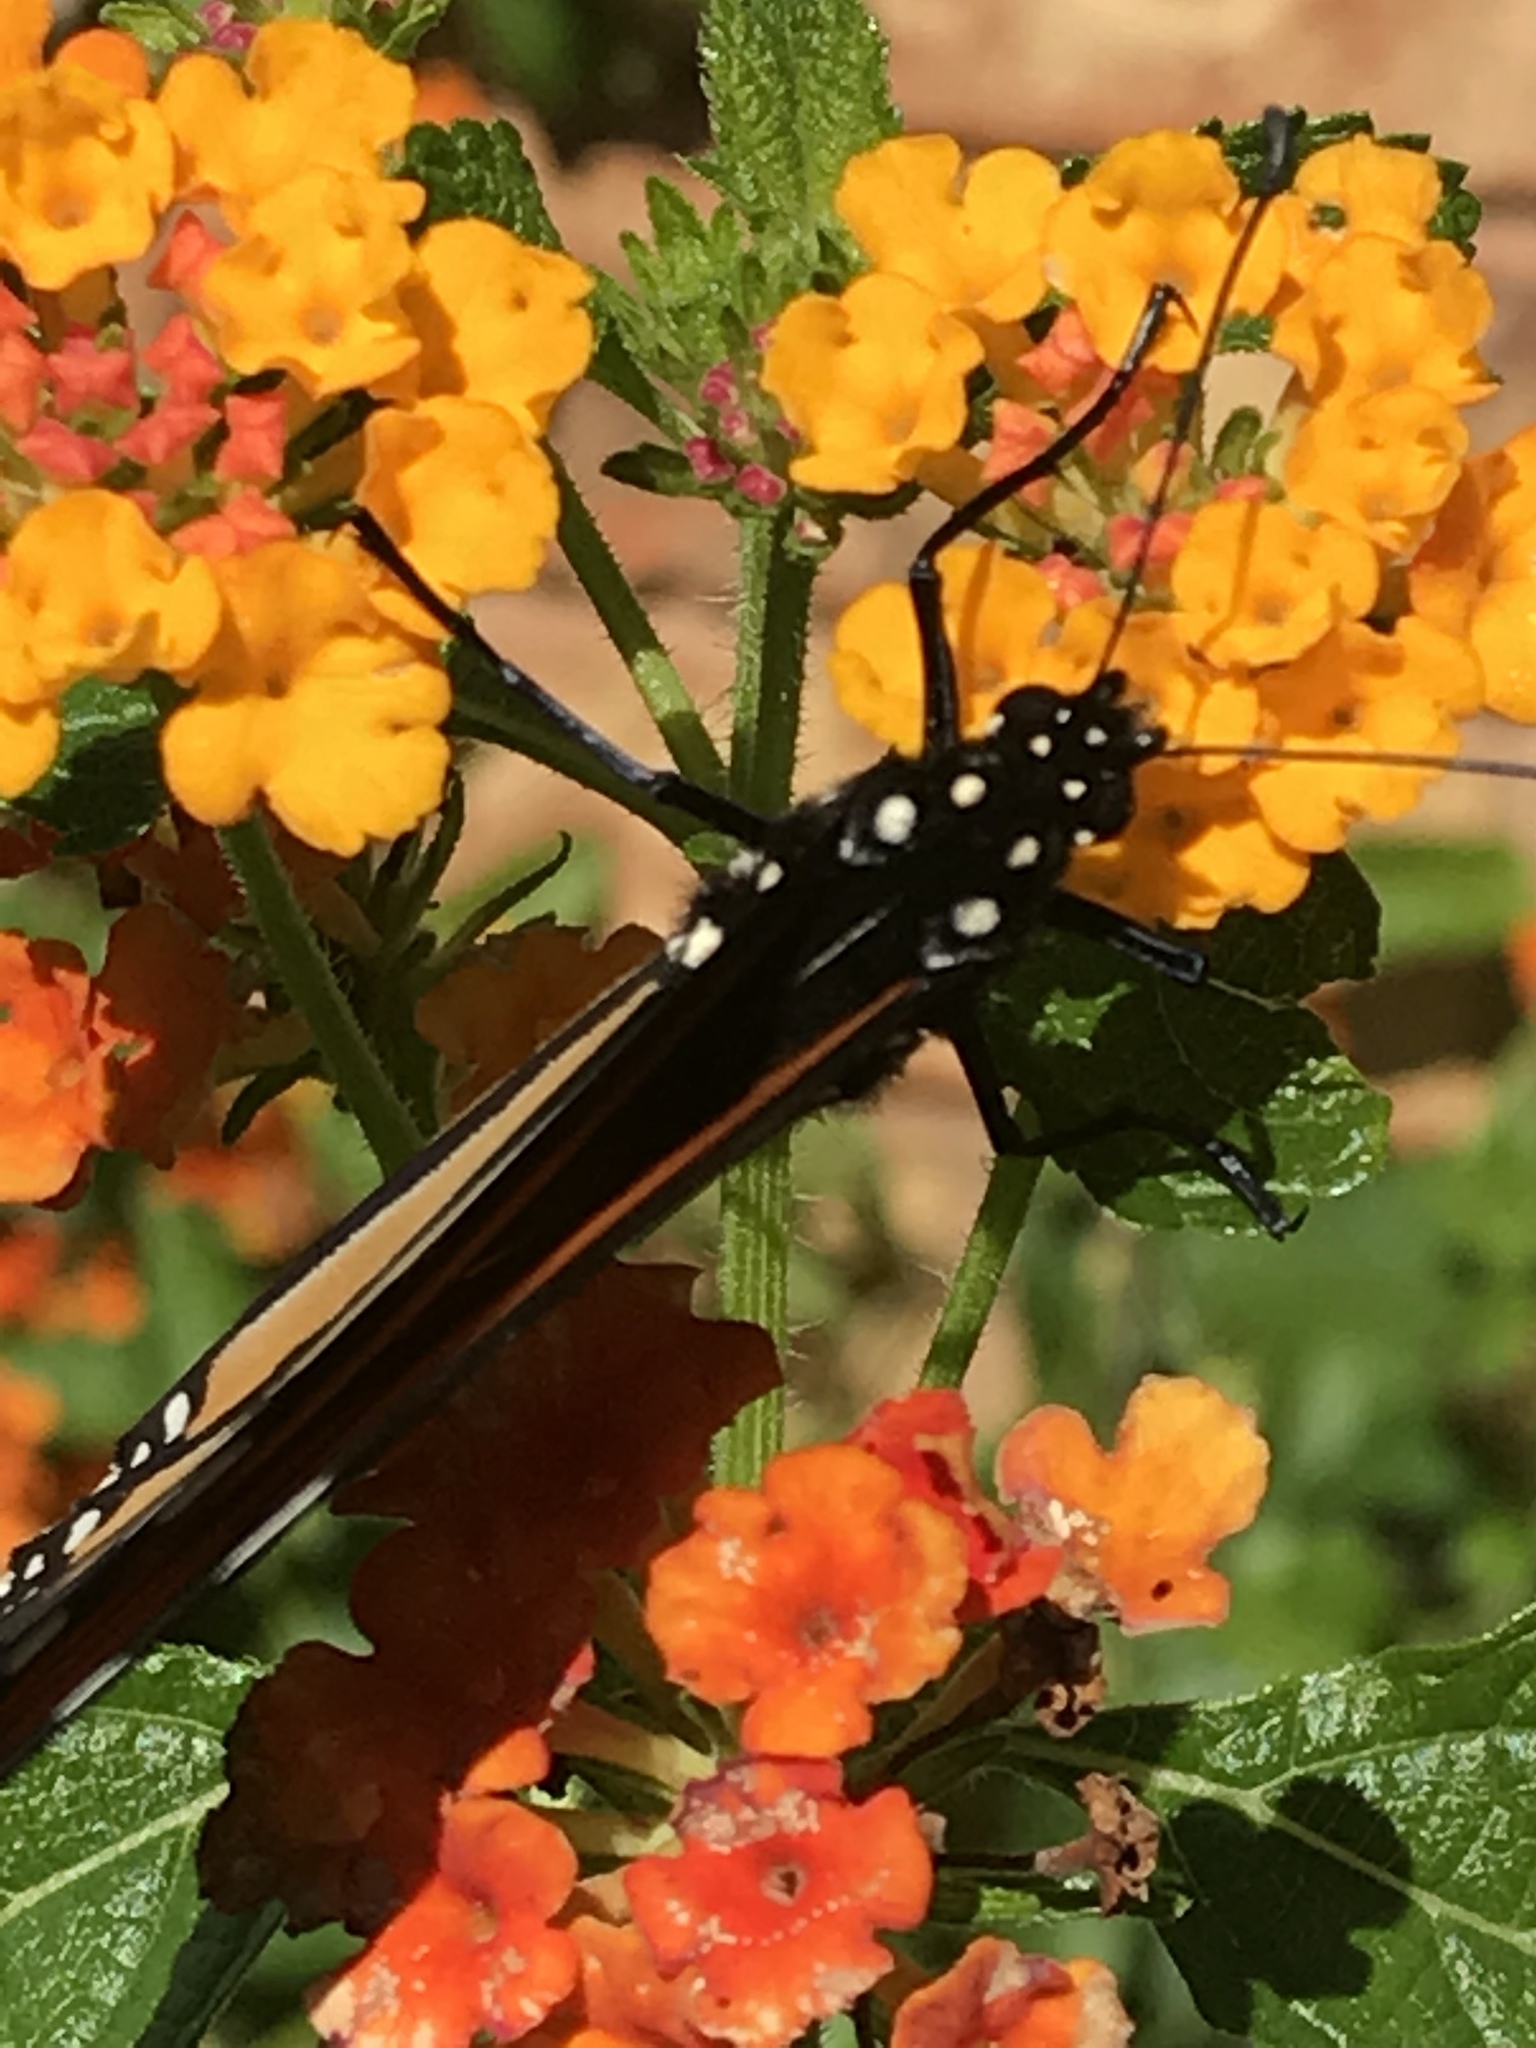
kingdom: Animalia
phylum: Arthropoda
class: Insecta
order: Lepidoptera
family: Nymphalidae
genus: Danaus
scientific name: Danaus plexippus
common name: Monarch
